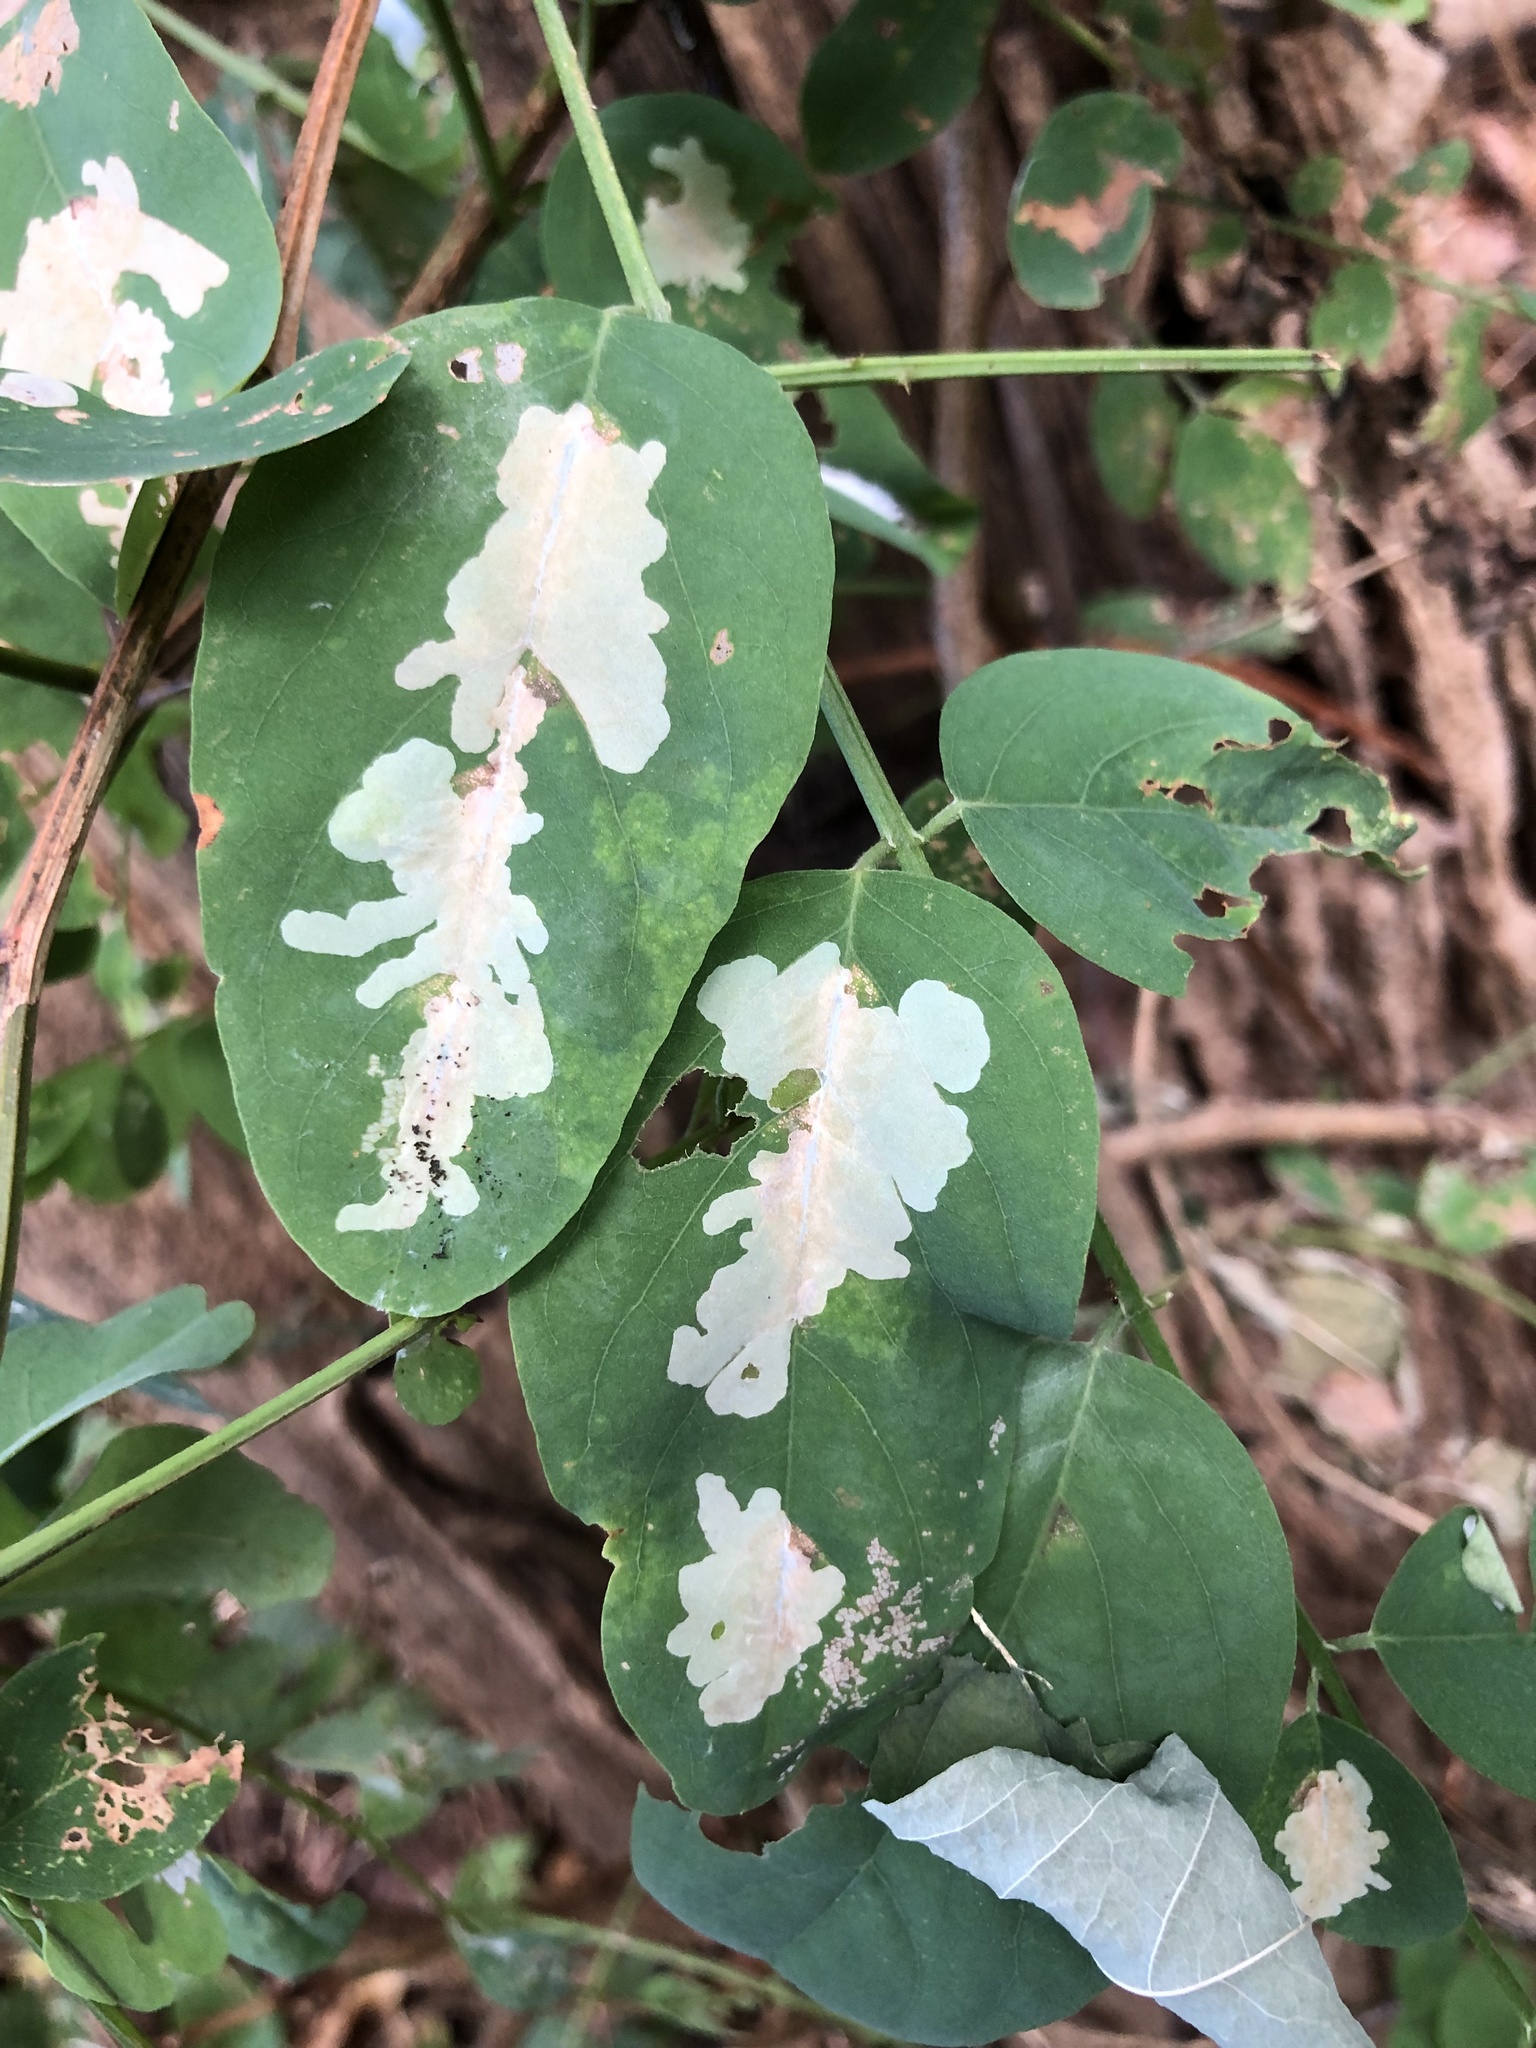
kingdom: Animalia
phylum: Arthropoda
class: Insecta
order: Lepidoptera
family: Gracillariidae
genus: Parectopa
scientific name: Parectopa robiniella
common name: Locust digitate leafminer
